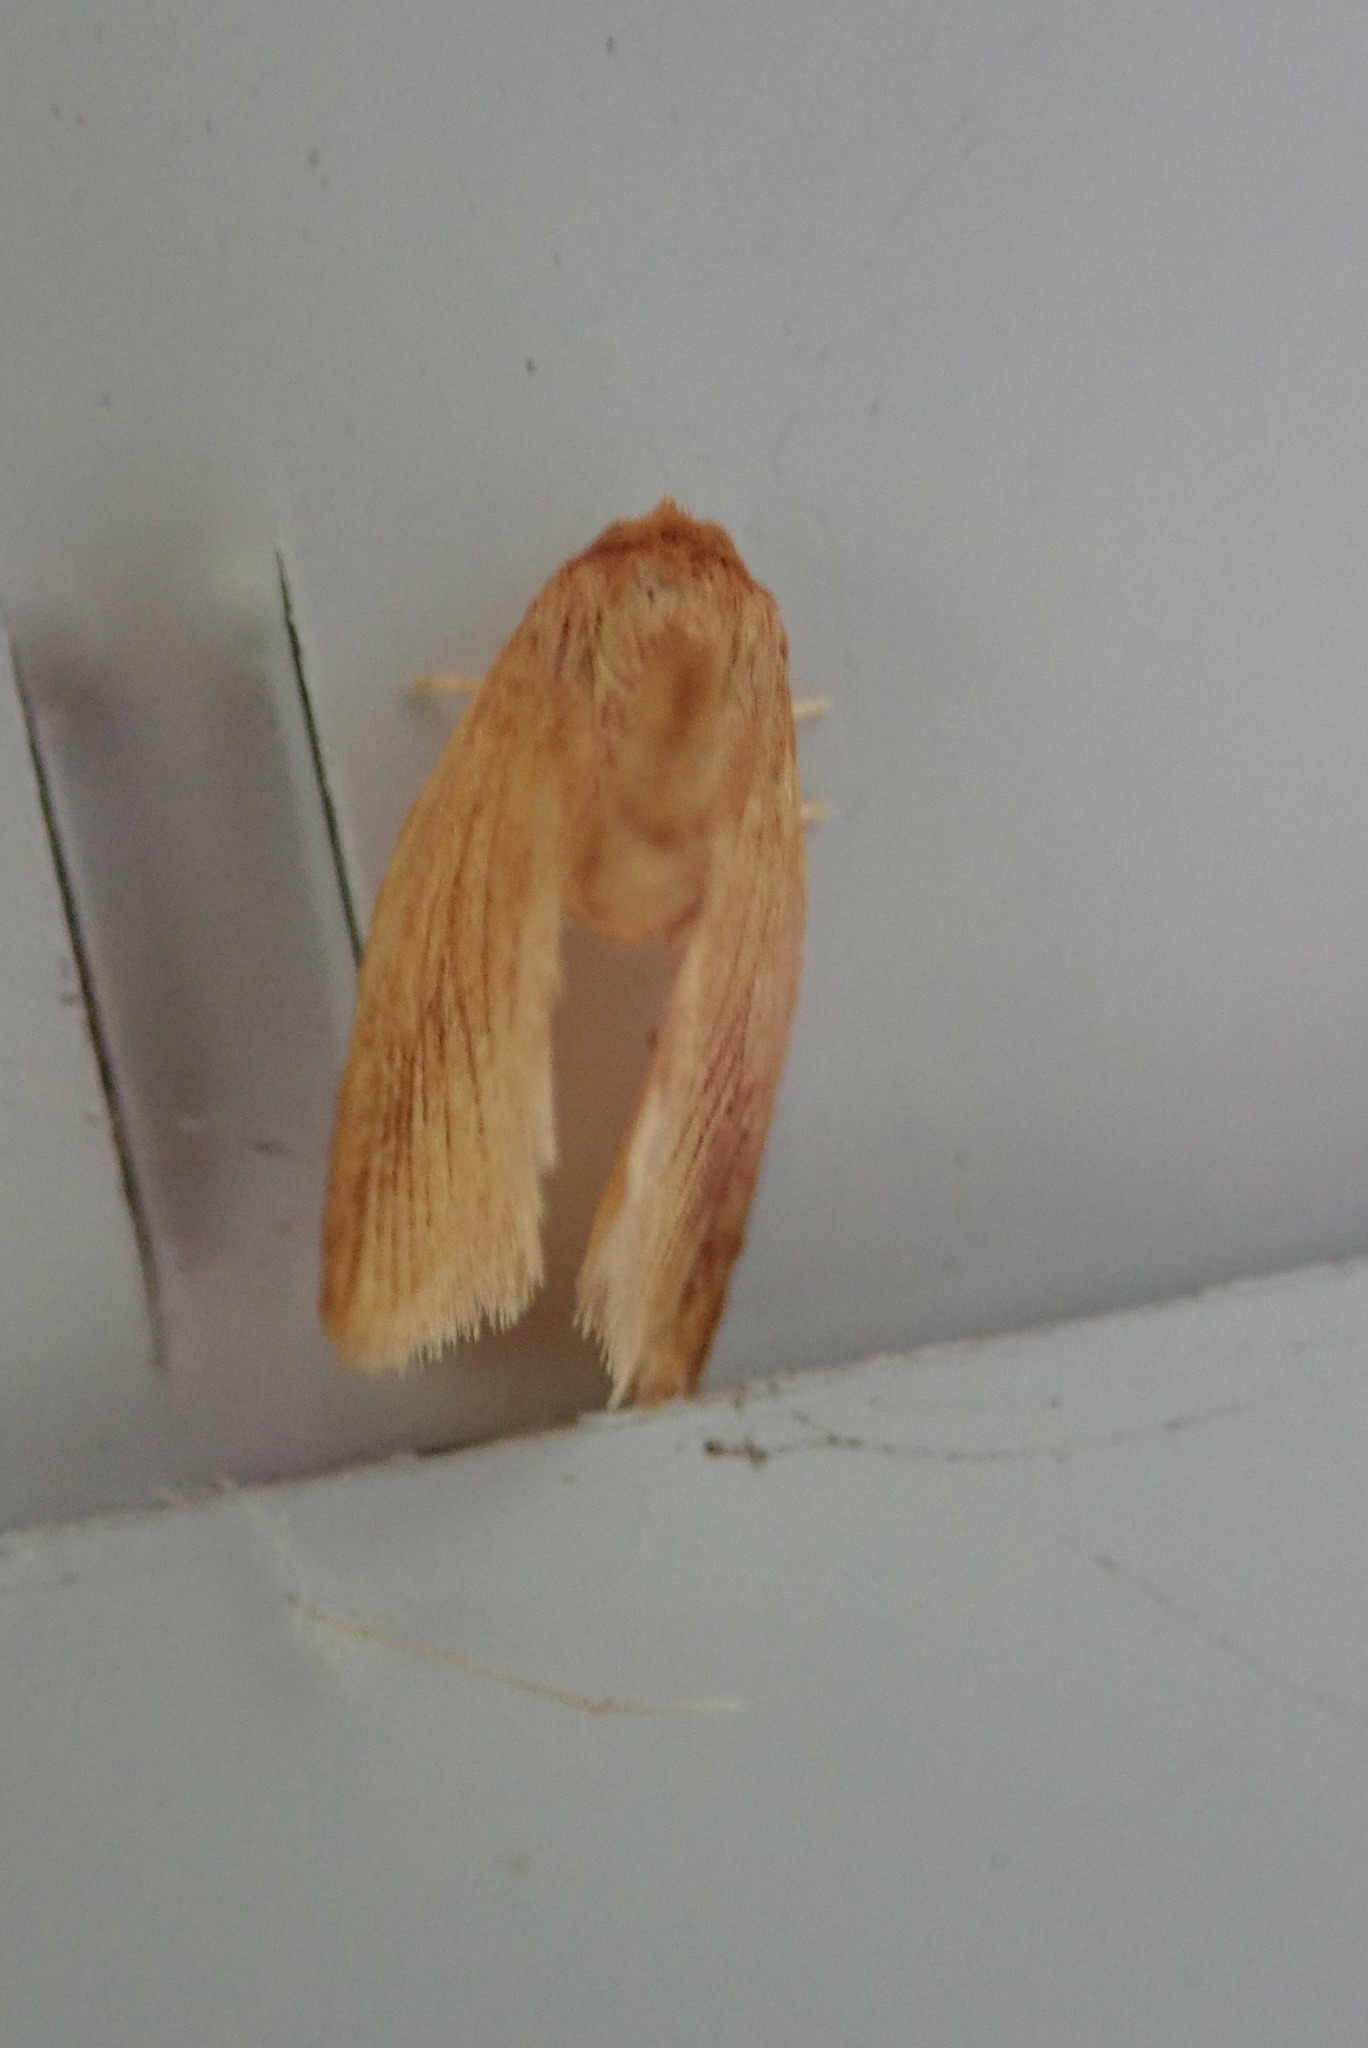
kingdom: Animalia
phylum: Arthropoda
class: Insecta
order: Lepidoptera
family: Limacodidae
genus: Tortricidia
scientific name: Tortricidia testacea
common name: Early button slug moth
